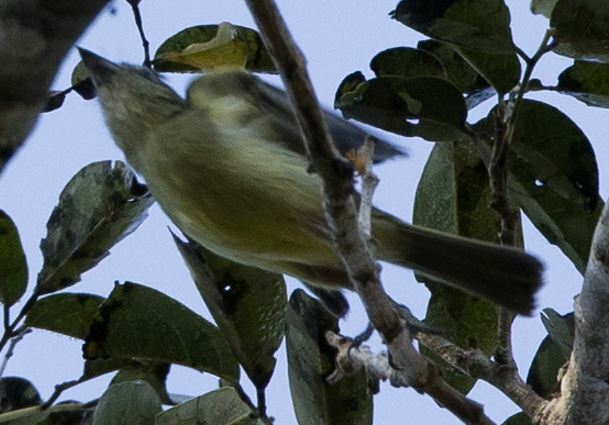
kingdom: Animalia
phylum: Chordata
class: Aves
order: Passeriformes
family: Tyrannidae
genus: Tolmomyias
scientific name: Tolmomyias poliocephalus
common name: Grey-crowned flatbill
